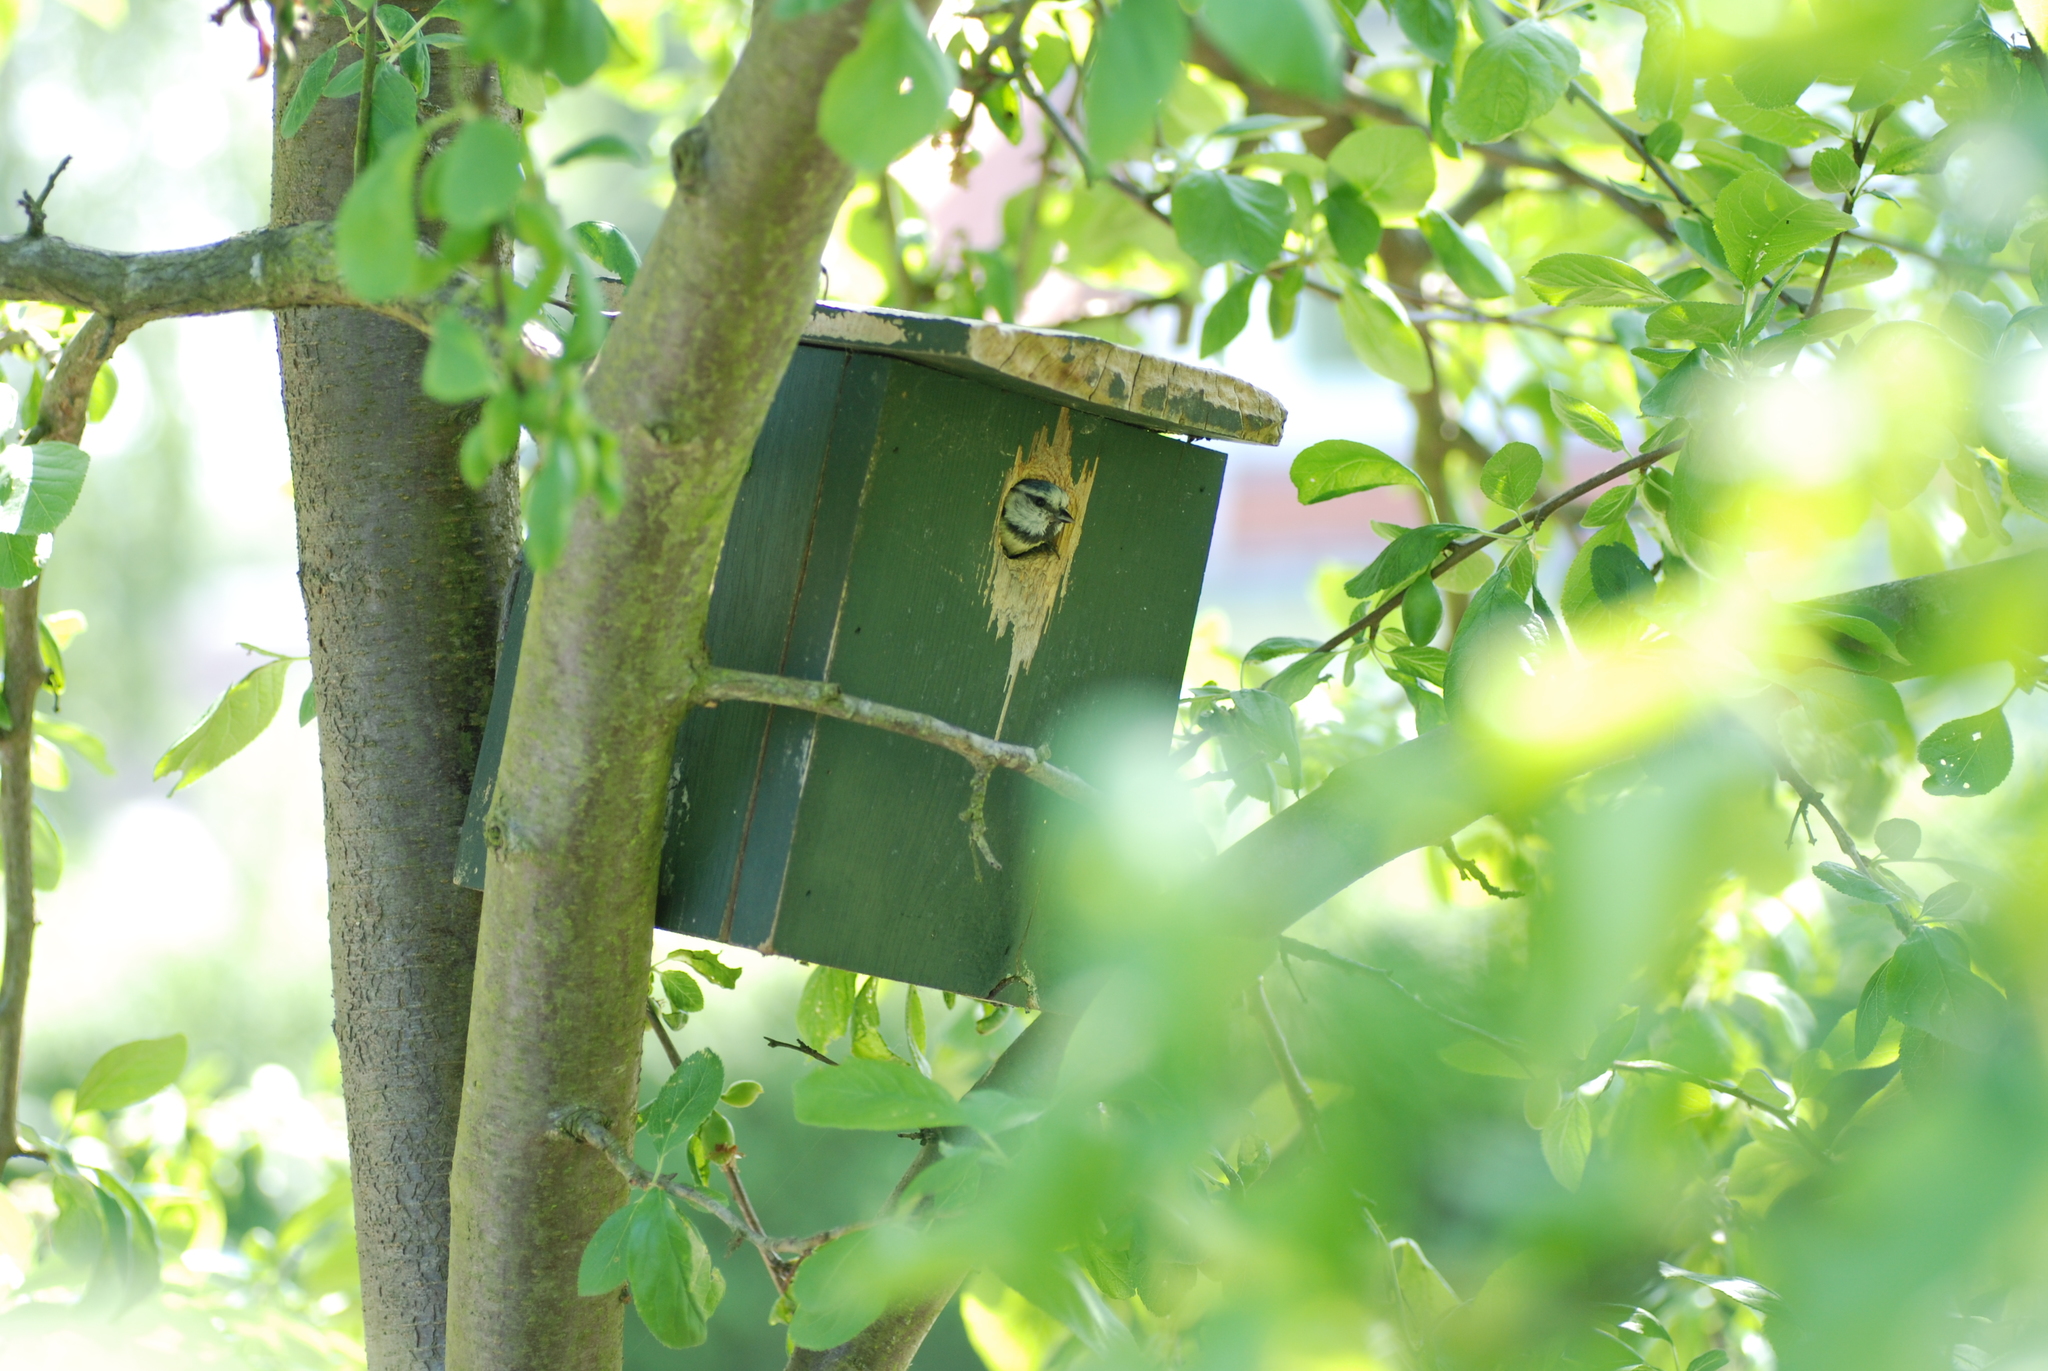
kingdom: Animalia
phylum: Chordata
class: Aves
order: Passeriformes
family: Paridae
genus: Cyanistes
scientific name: Cyanistes caeruleus
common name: Eurasian blue tit
